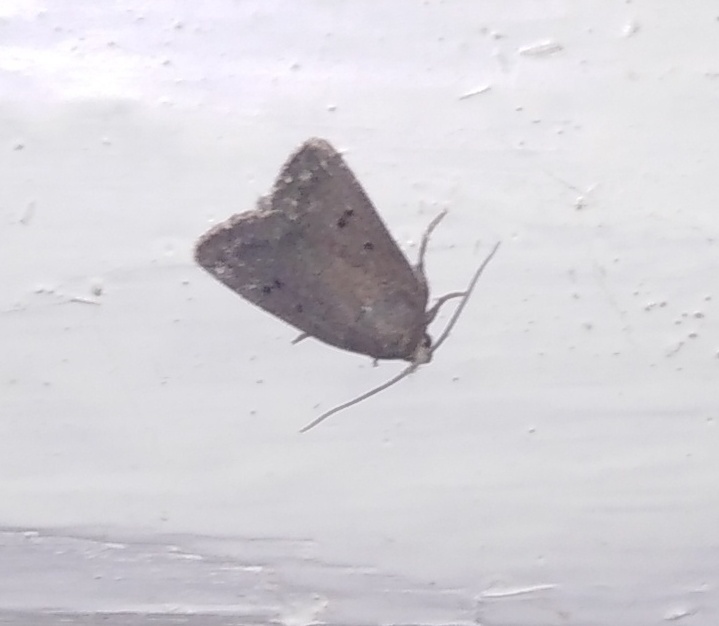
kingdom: Animalia
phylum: Arthropoda
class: Insecta
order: Lepidoptera
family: Noctuidae
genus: Amphipyra
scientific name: Amphipyra tragopoginis
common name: Mouse moth
